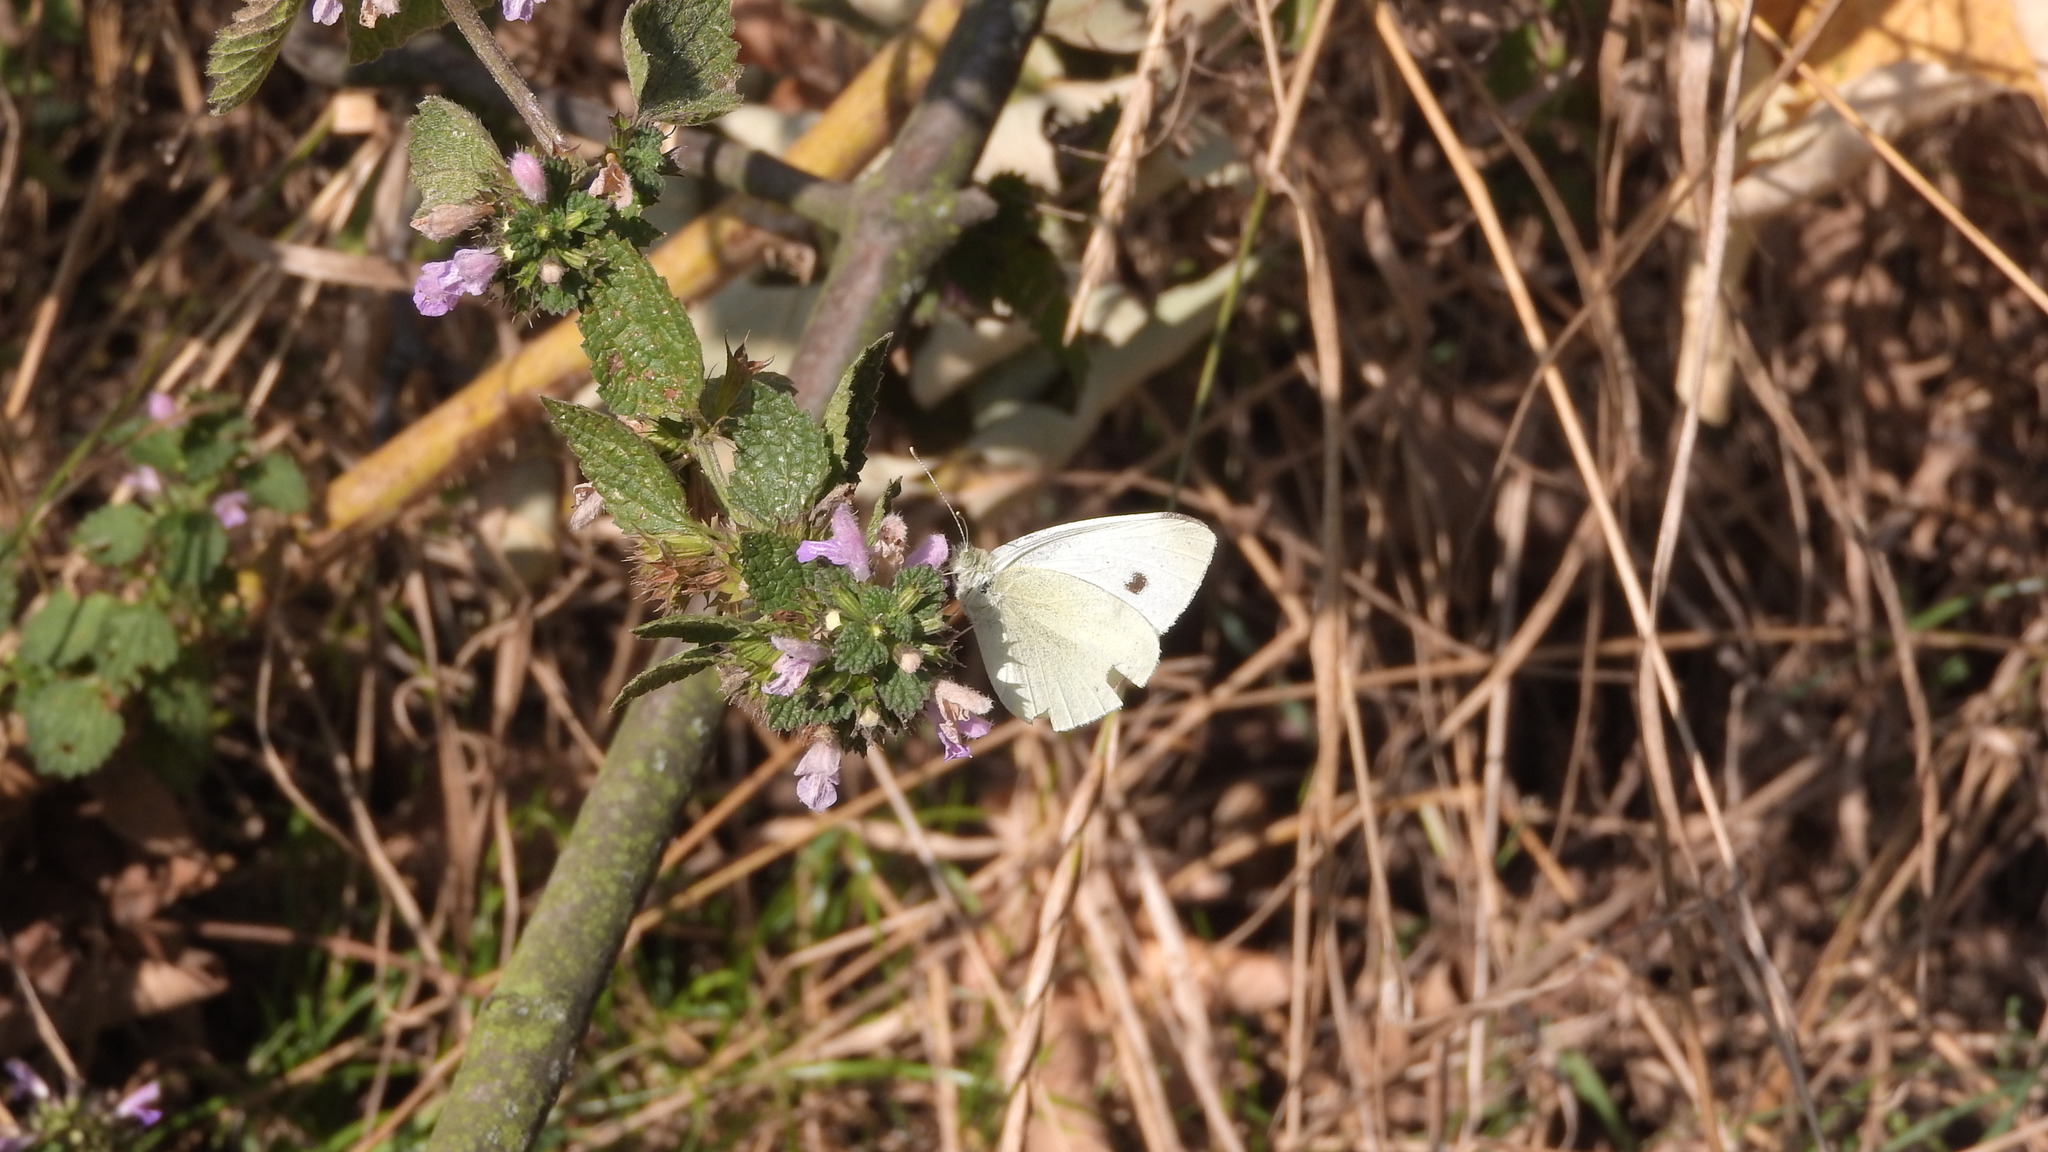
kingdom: Animalia
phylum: Arthropoda
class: Insecta
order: Lepidoptera
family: Pieridae
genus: Pieris
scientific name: Pieris rapae
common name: Small white
